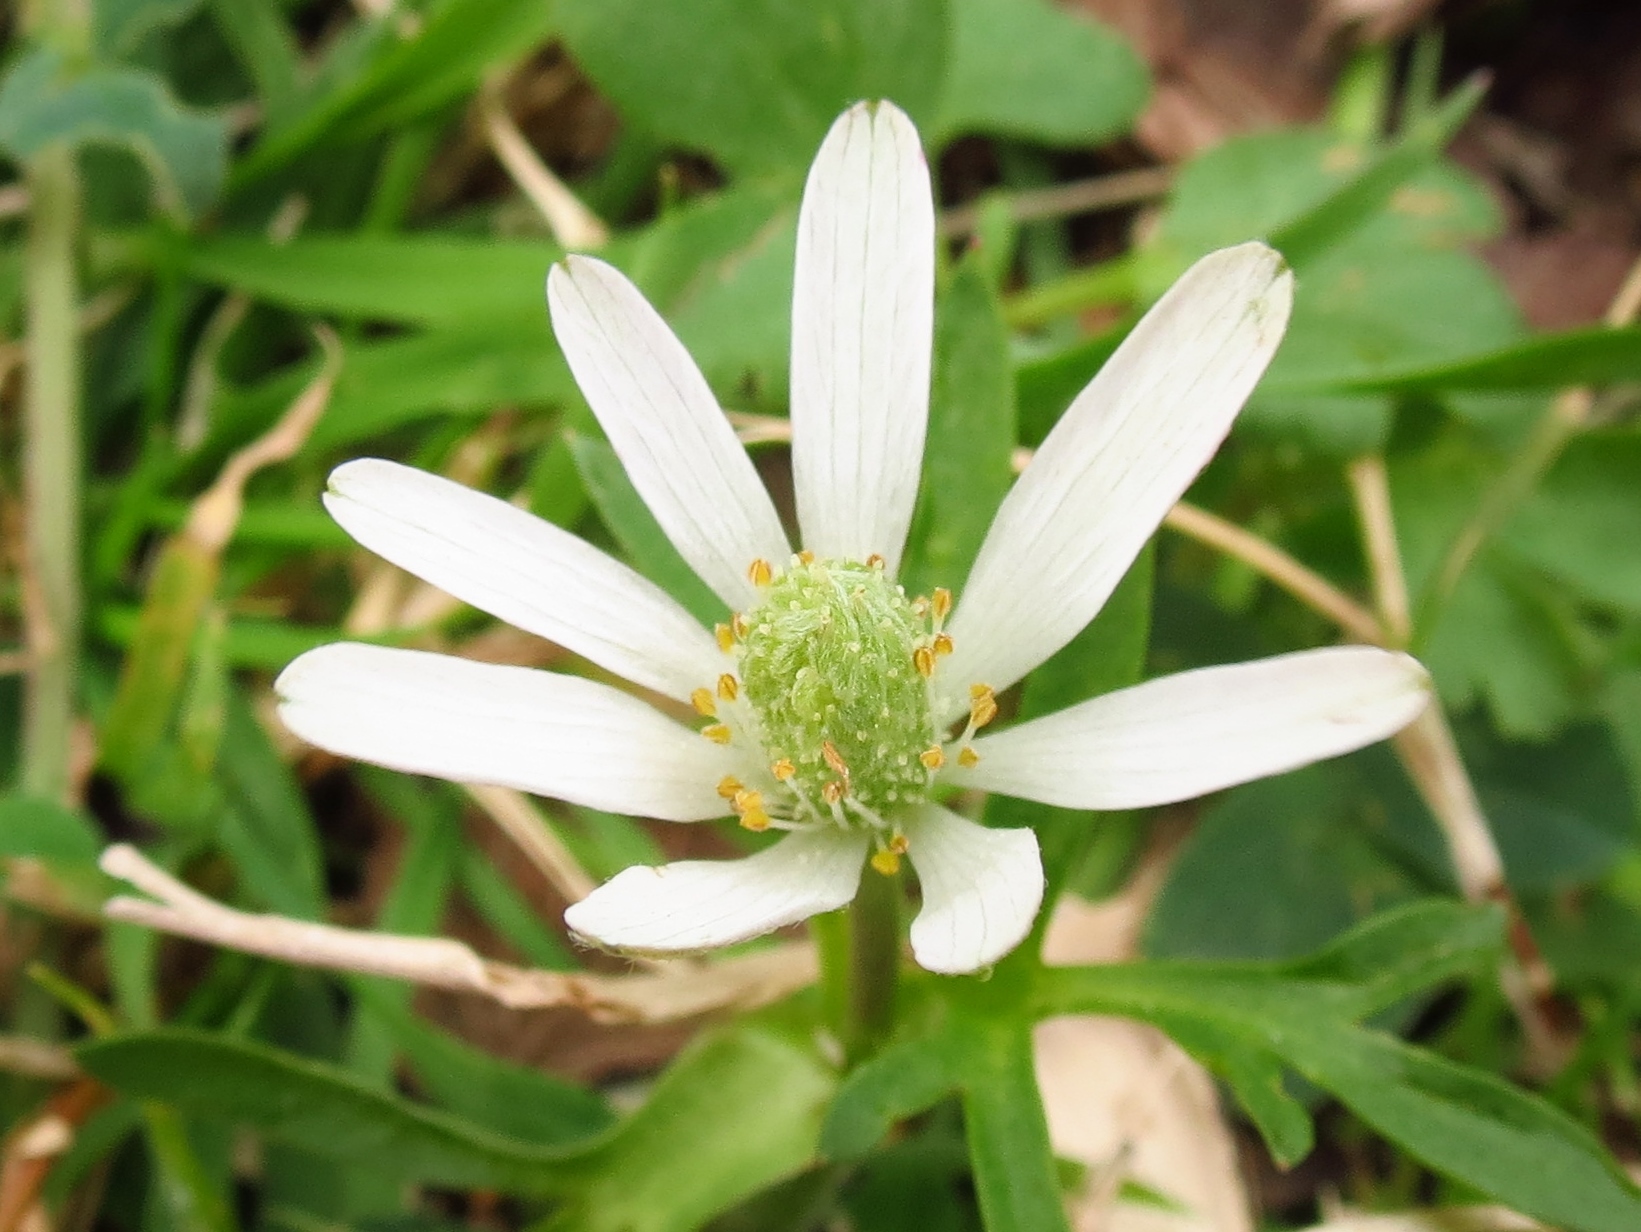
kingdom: Plantae
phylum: Tracheophyta
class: Magnoliopsida
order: Ranunculales
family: Ranunculaceae
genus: Anemone
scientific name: Anemone berlandieri
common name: Ten-petal anemone
